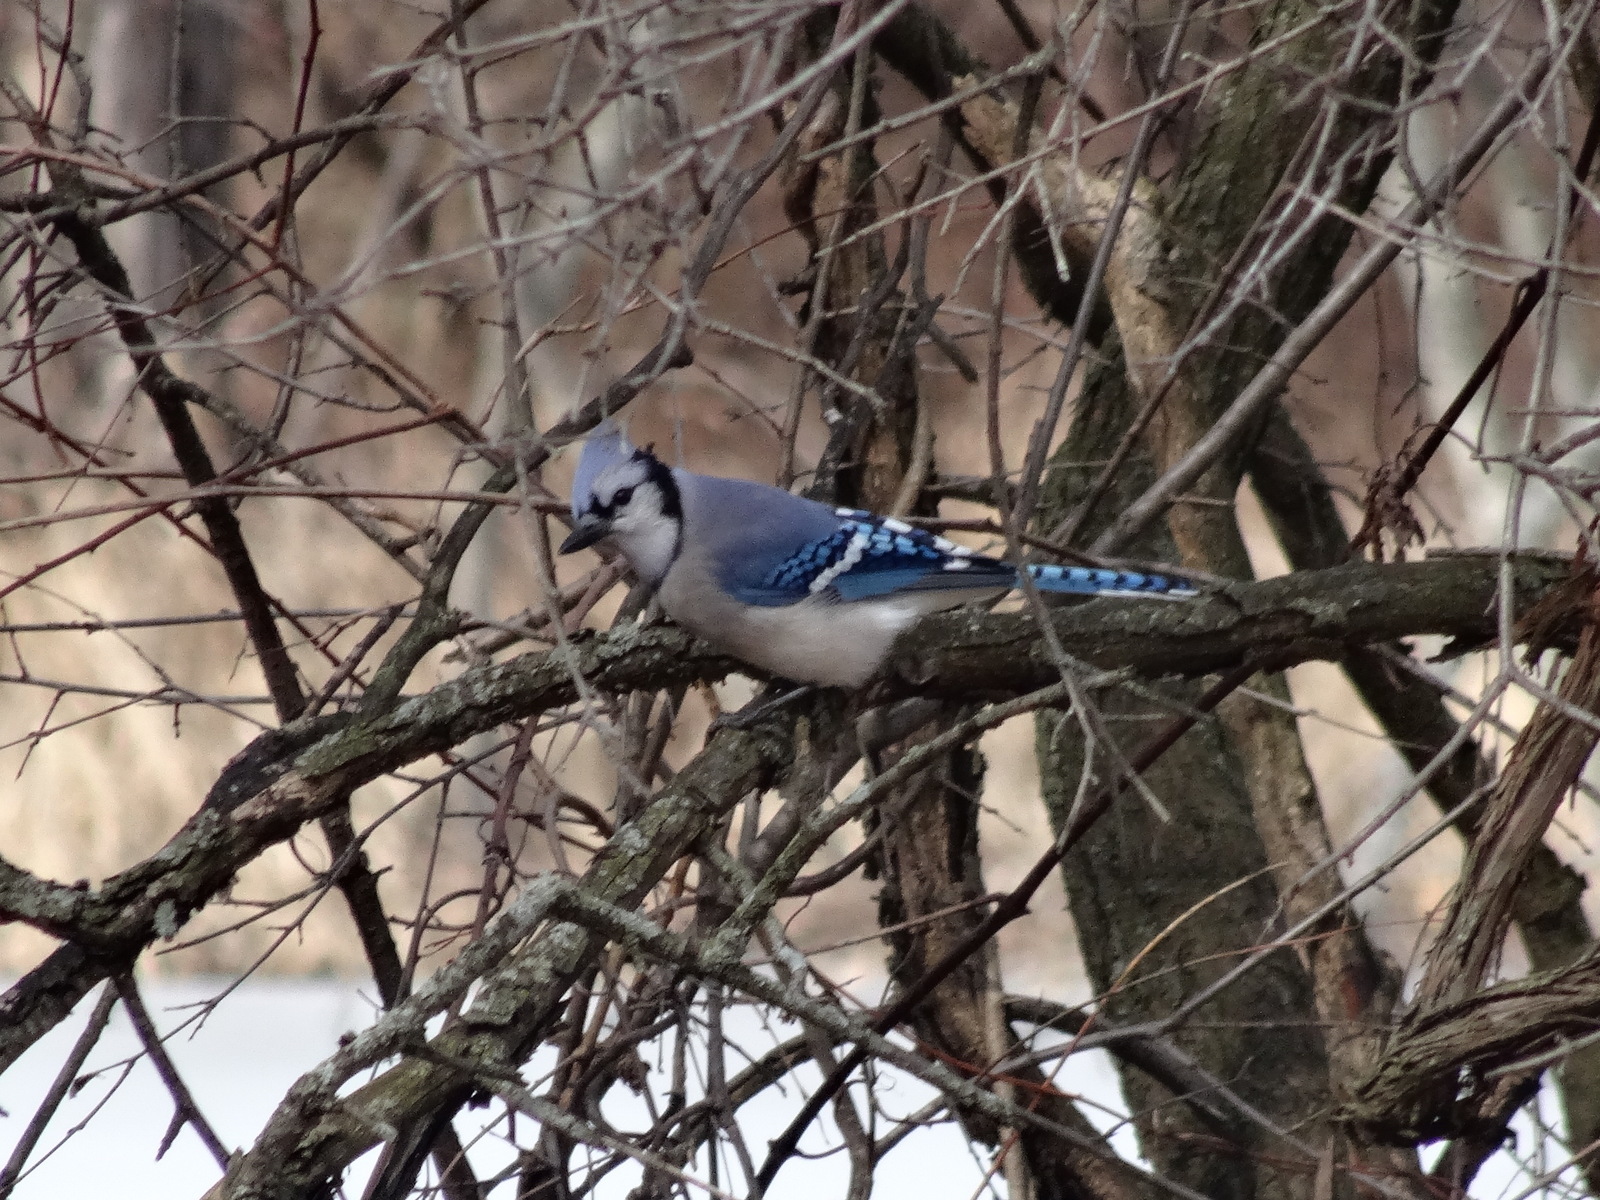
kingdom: Animalia
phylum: Chordata
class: Aves
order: Passeriformes
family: Corvidae
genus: Cyanocitta
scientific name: Cyanocitta cristata
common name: Blue jay
